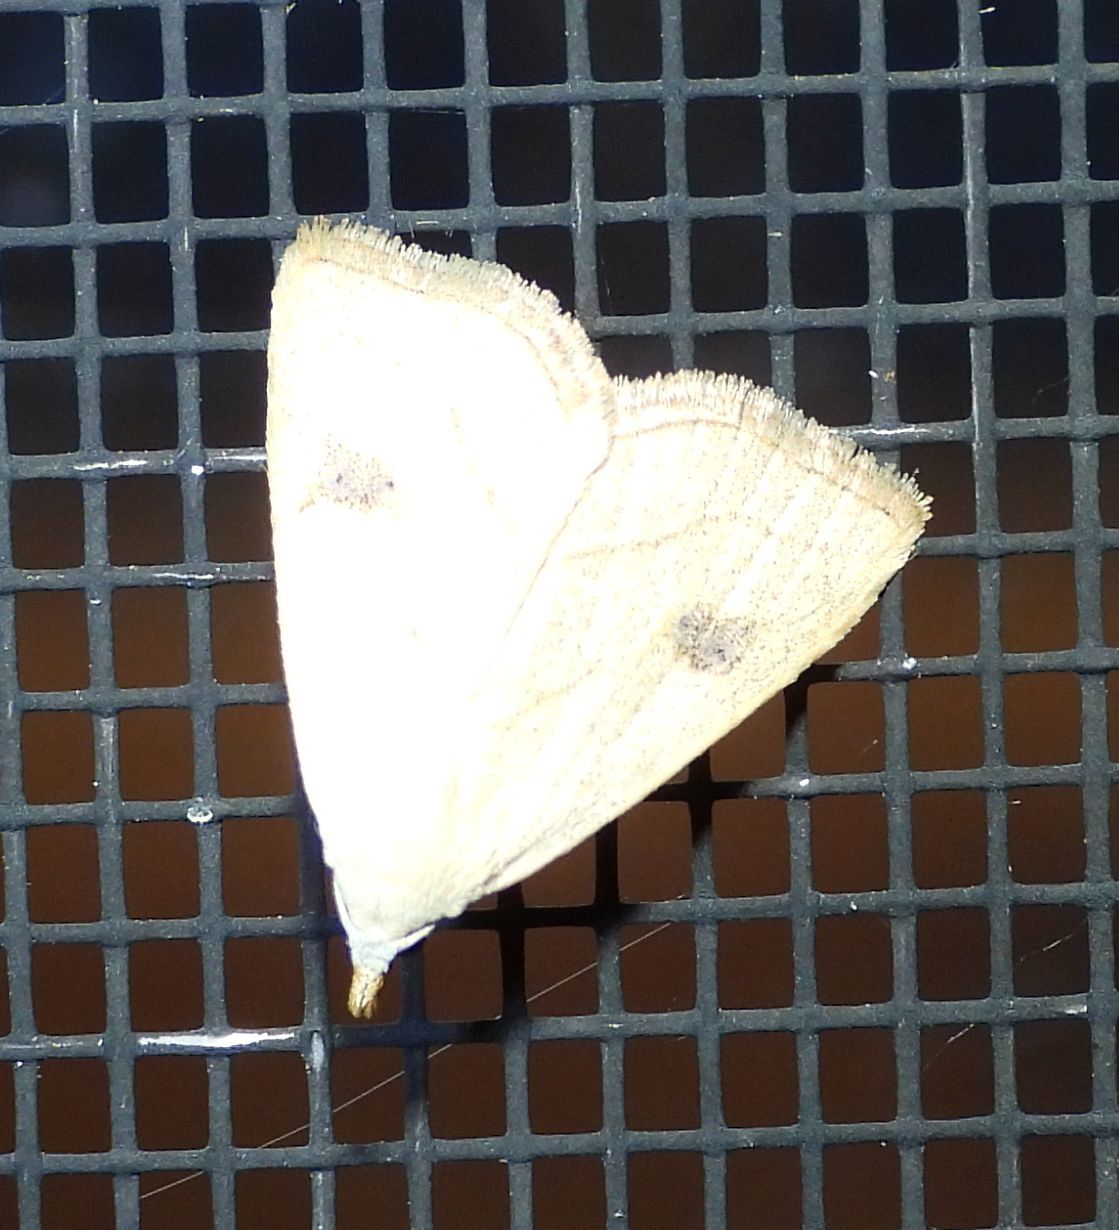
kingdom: Animalia
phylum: Arthropoda
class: Insecta
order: Lepidoptera
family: Erebidae
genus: Rivula
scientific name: Rivula propinqualis
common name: Spotted grass moth
